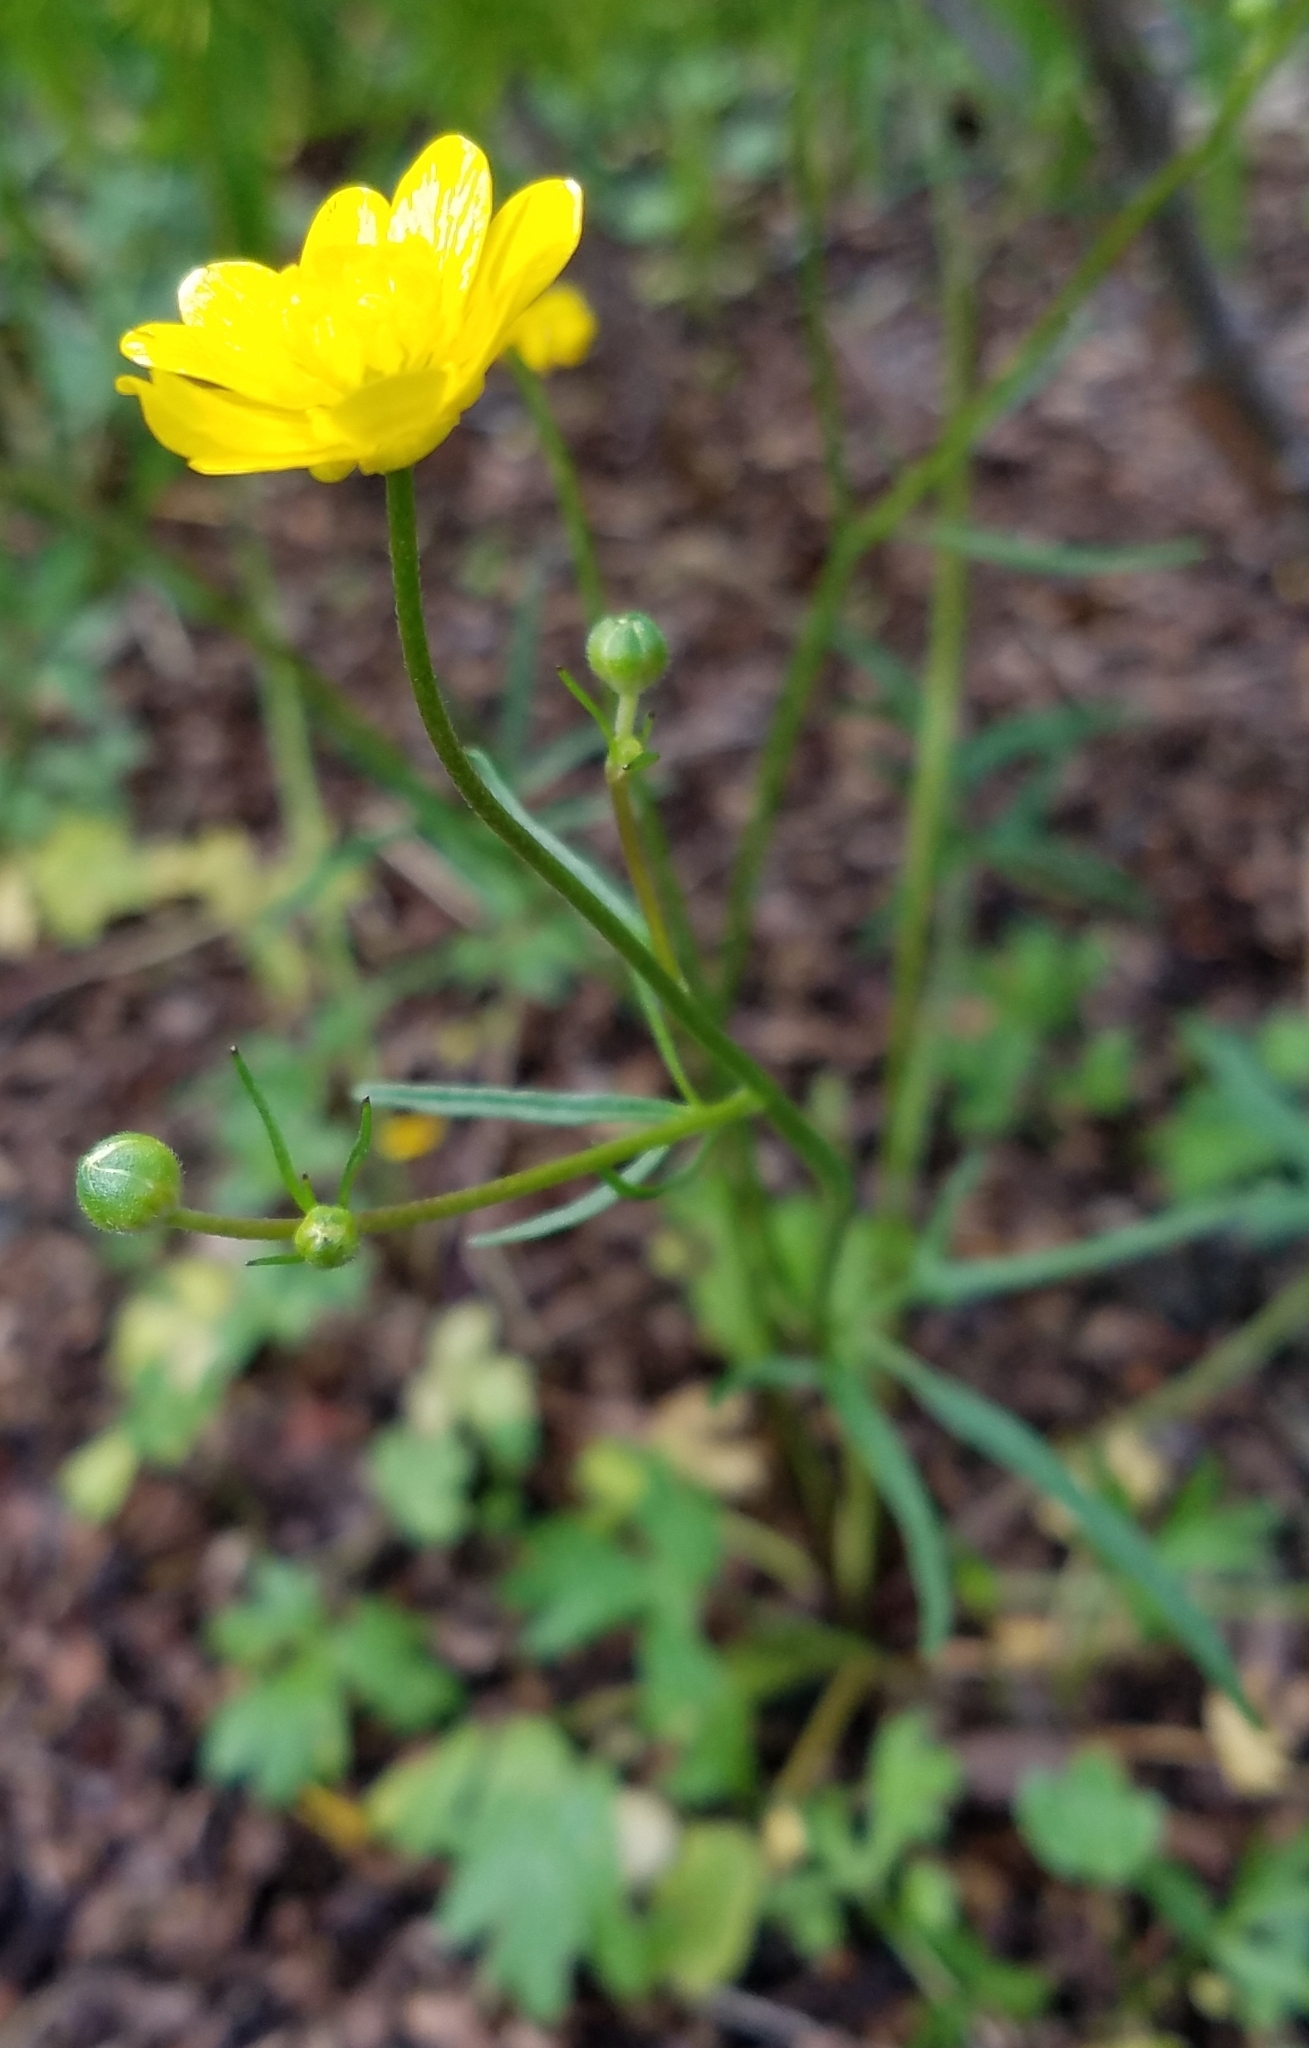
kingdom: Plantae
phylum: Tracheophyta
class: Magnoliopsida
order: Ranunculales
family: Ranunculaceae
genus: Ranunculus
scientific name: Ranunculus californicus
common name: California buttercup
